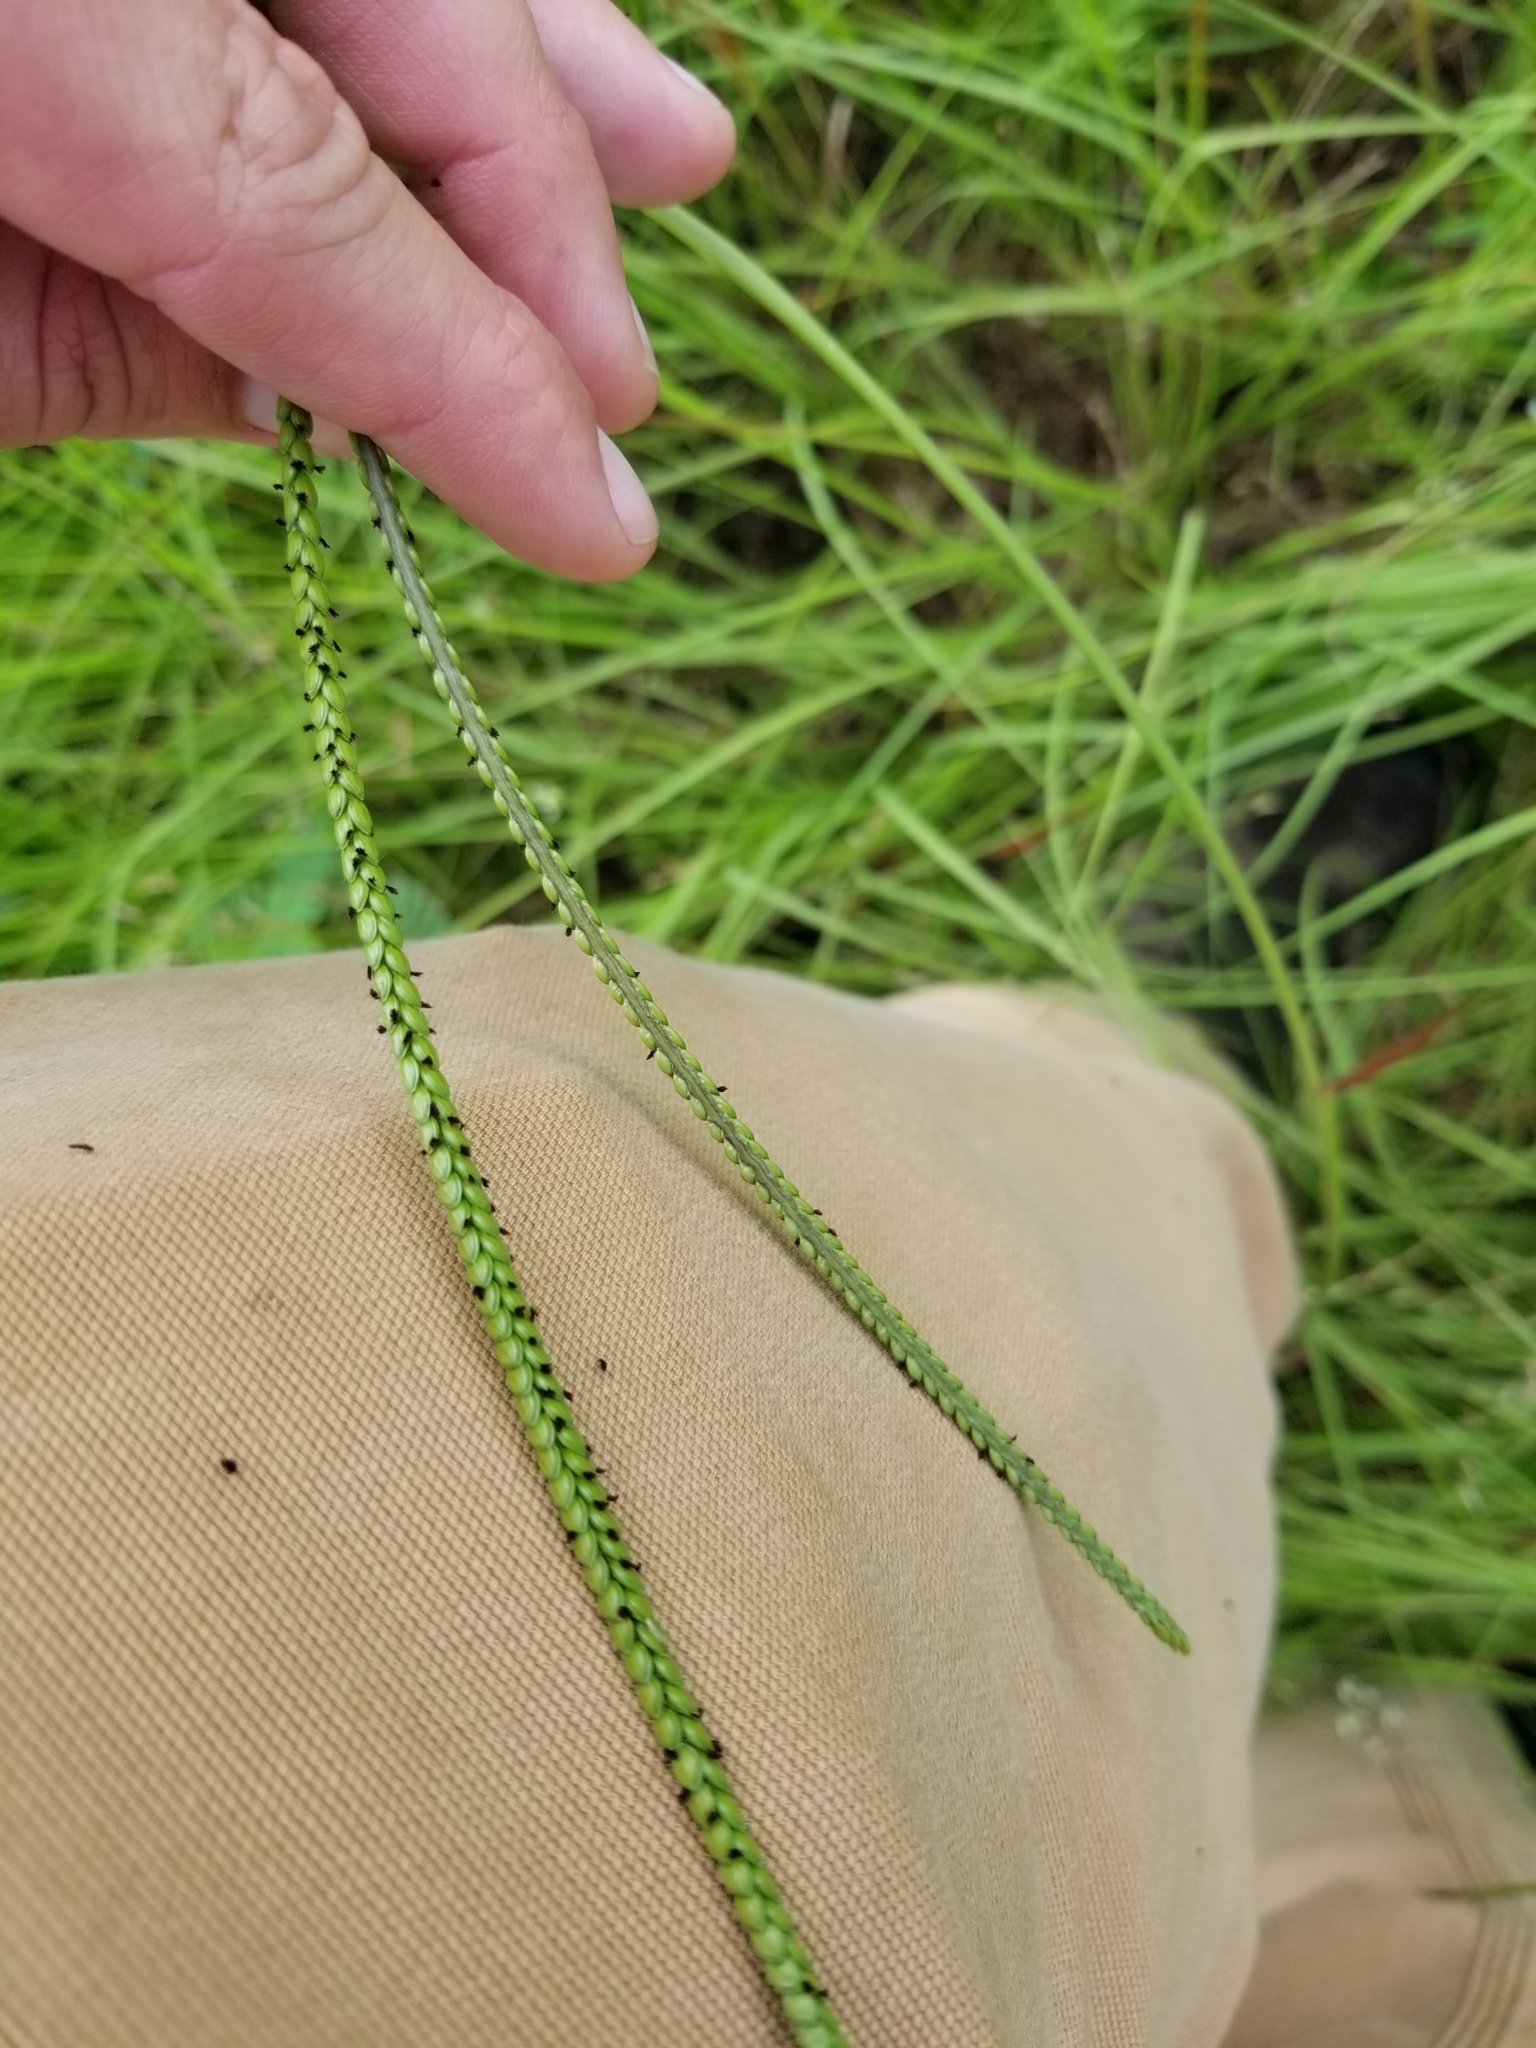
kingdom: Plantae
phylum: Tracheophyta
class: Liliopsida
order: Poales
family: Poaceae
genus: Paspalum
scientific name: Paspalum notatum
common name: Bahiagrass
